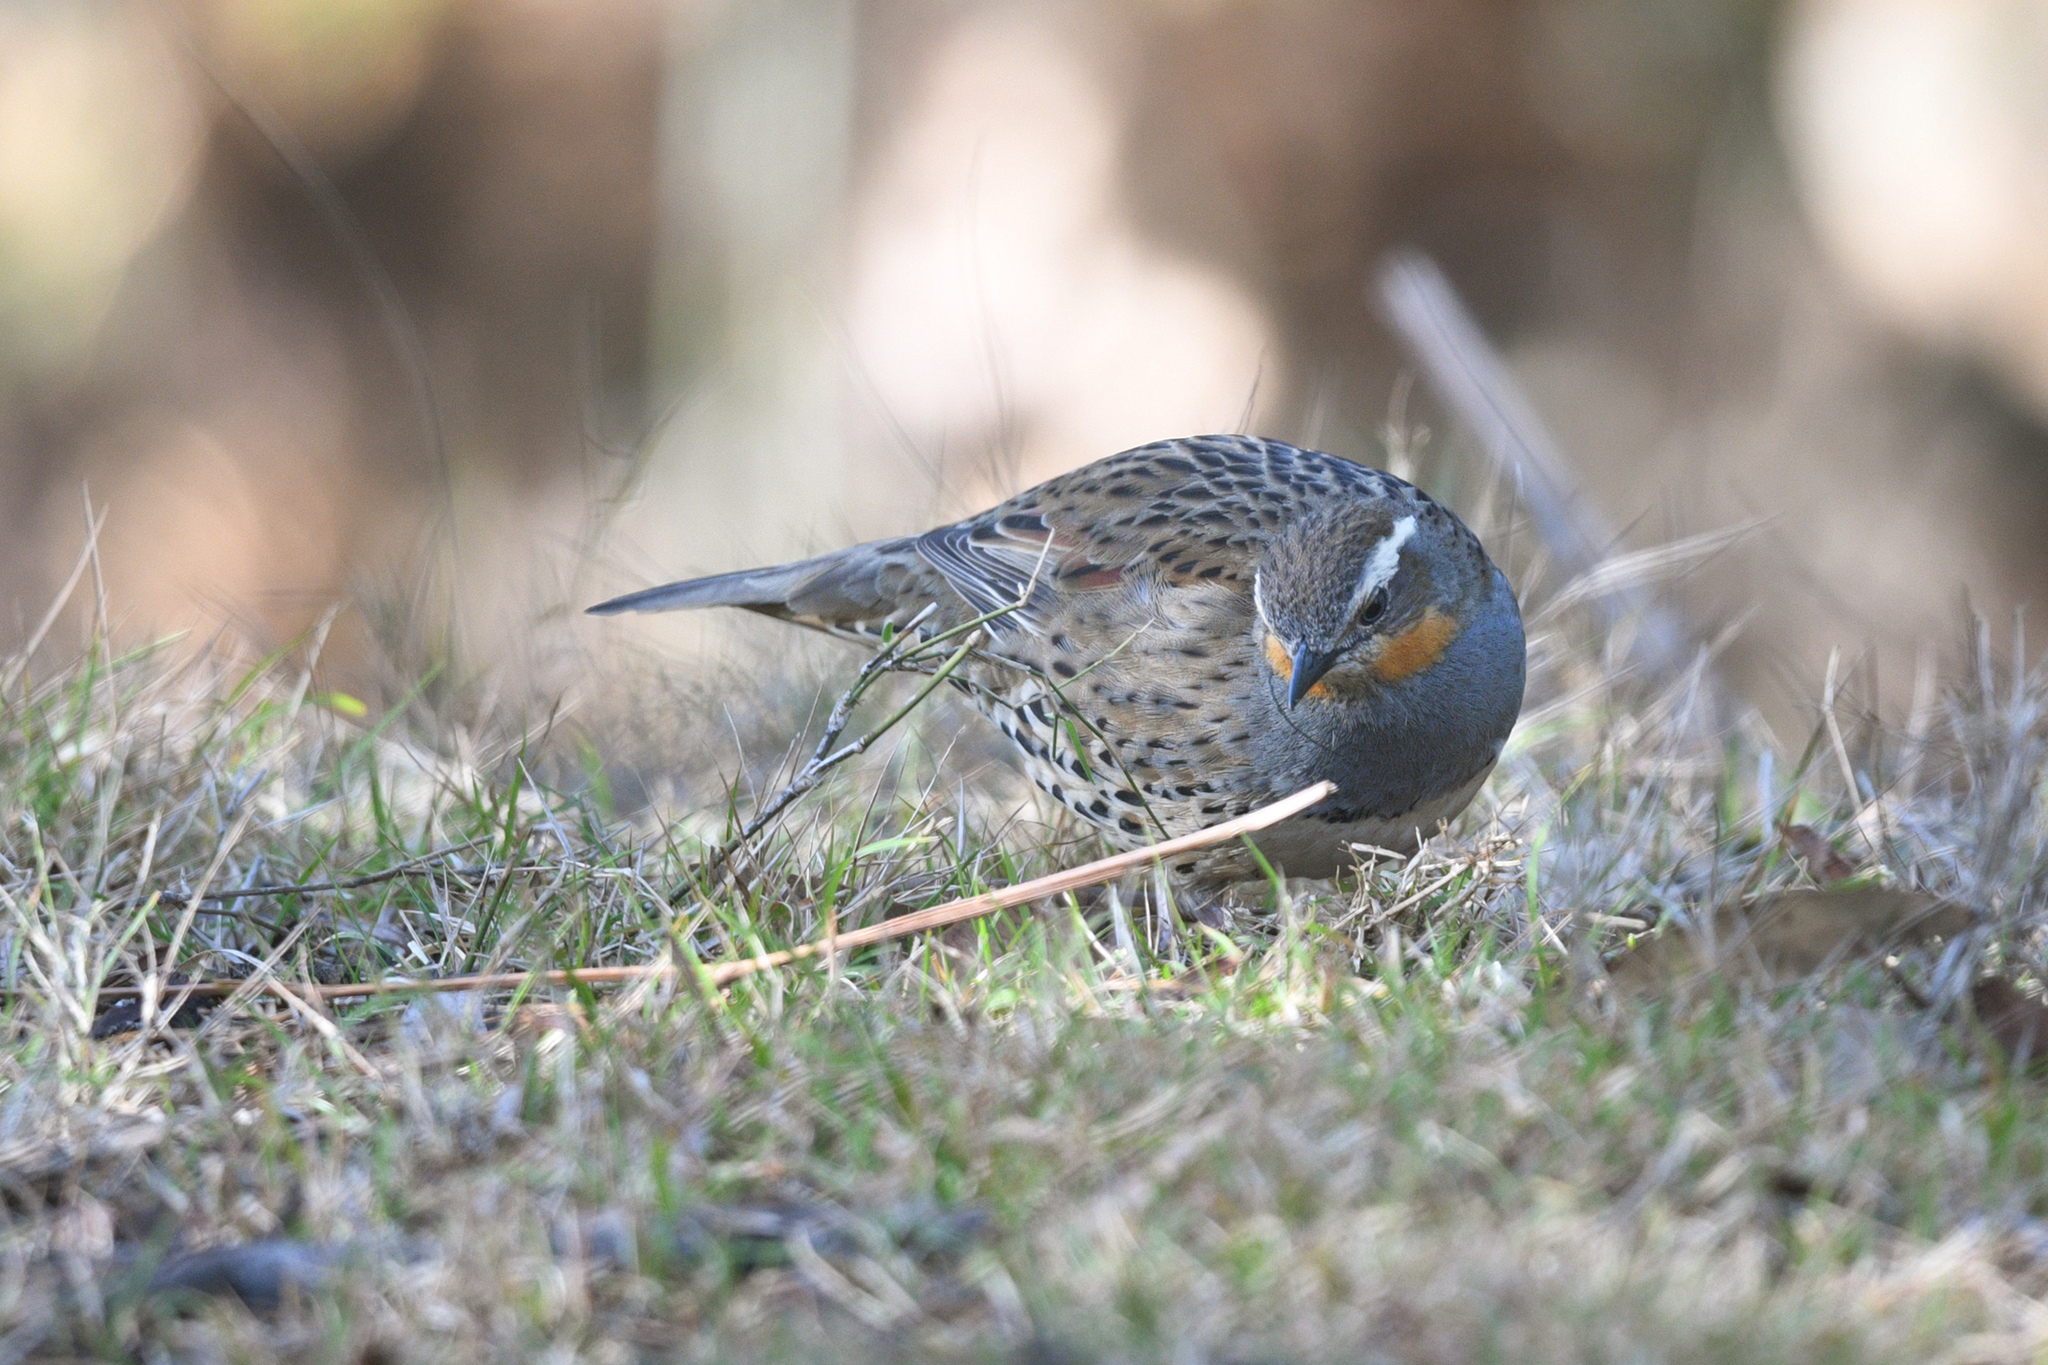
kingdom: Animalia
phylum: Chordata
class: Aves
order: Passeriformes
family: Psophodidae
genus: Cinclosoma
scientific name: Cinclosoma punctatum
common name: Spotted quail-thrush
